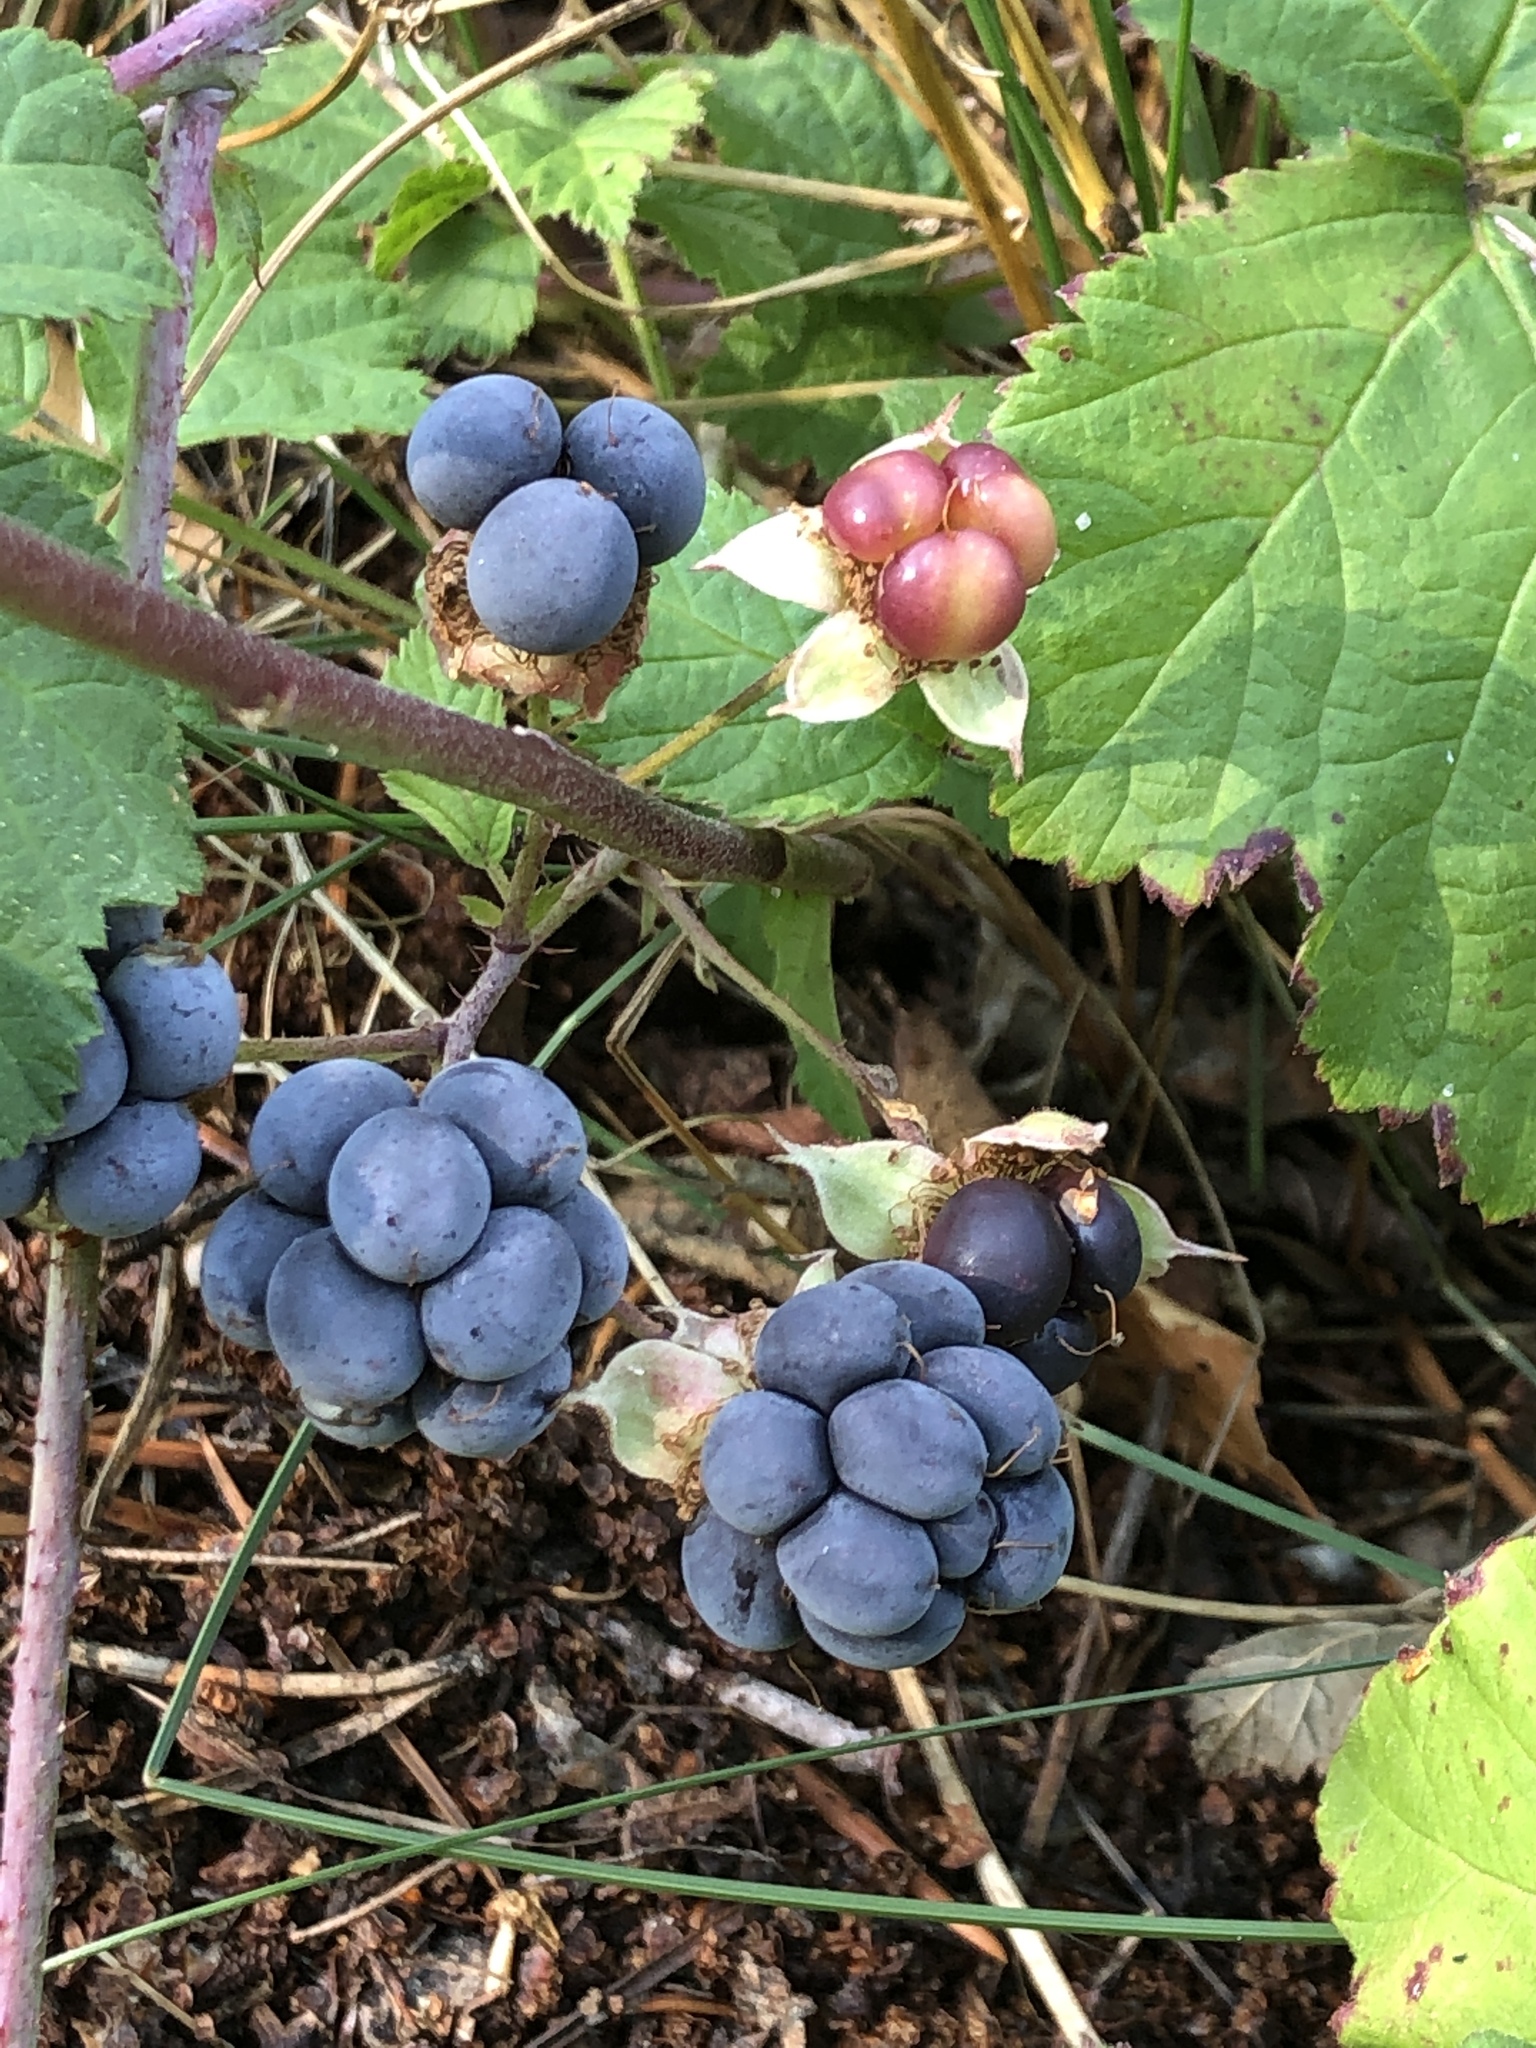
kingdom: Plantae
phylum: Tracheophyta
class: Magnoliopsida
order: Rosales
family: Rosaceae
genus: Rubus
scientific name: Rubus caesius
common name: Dewberry
